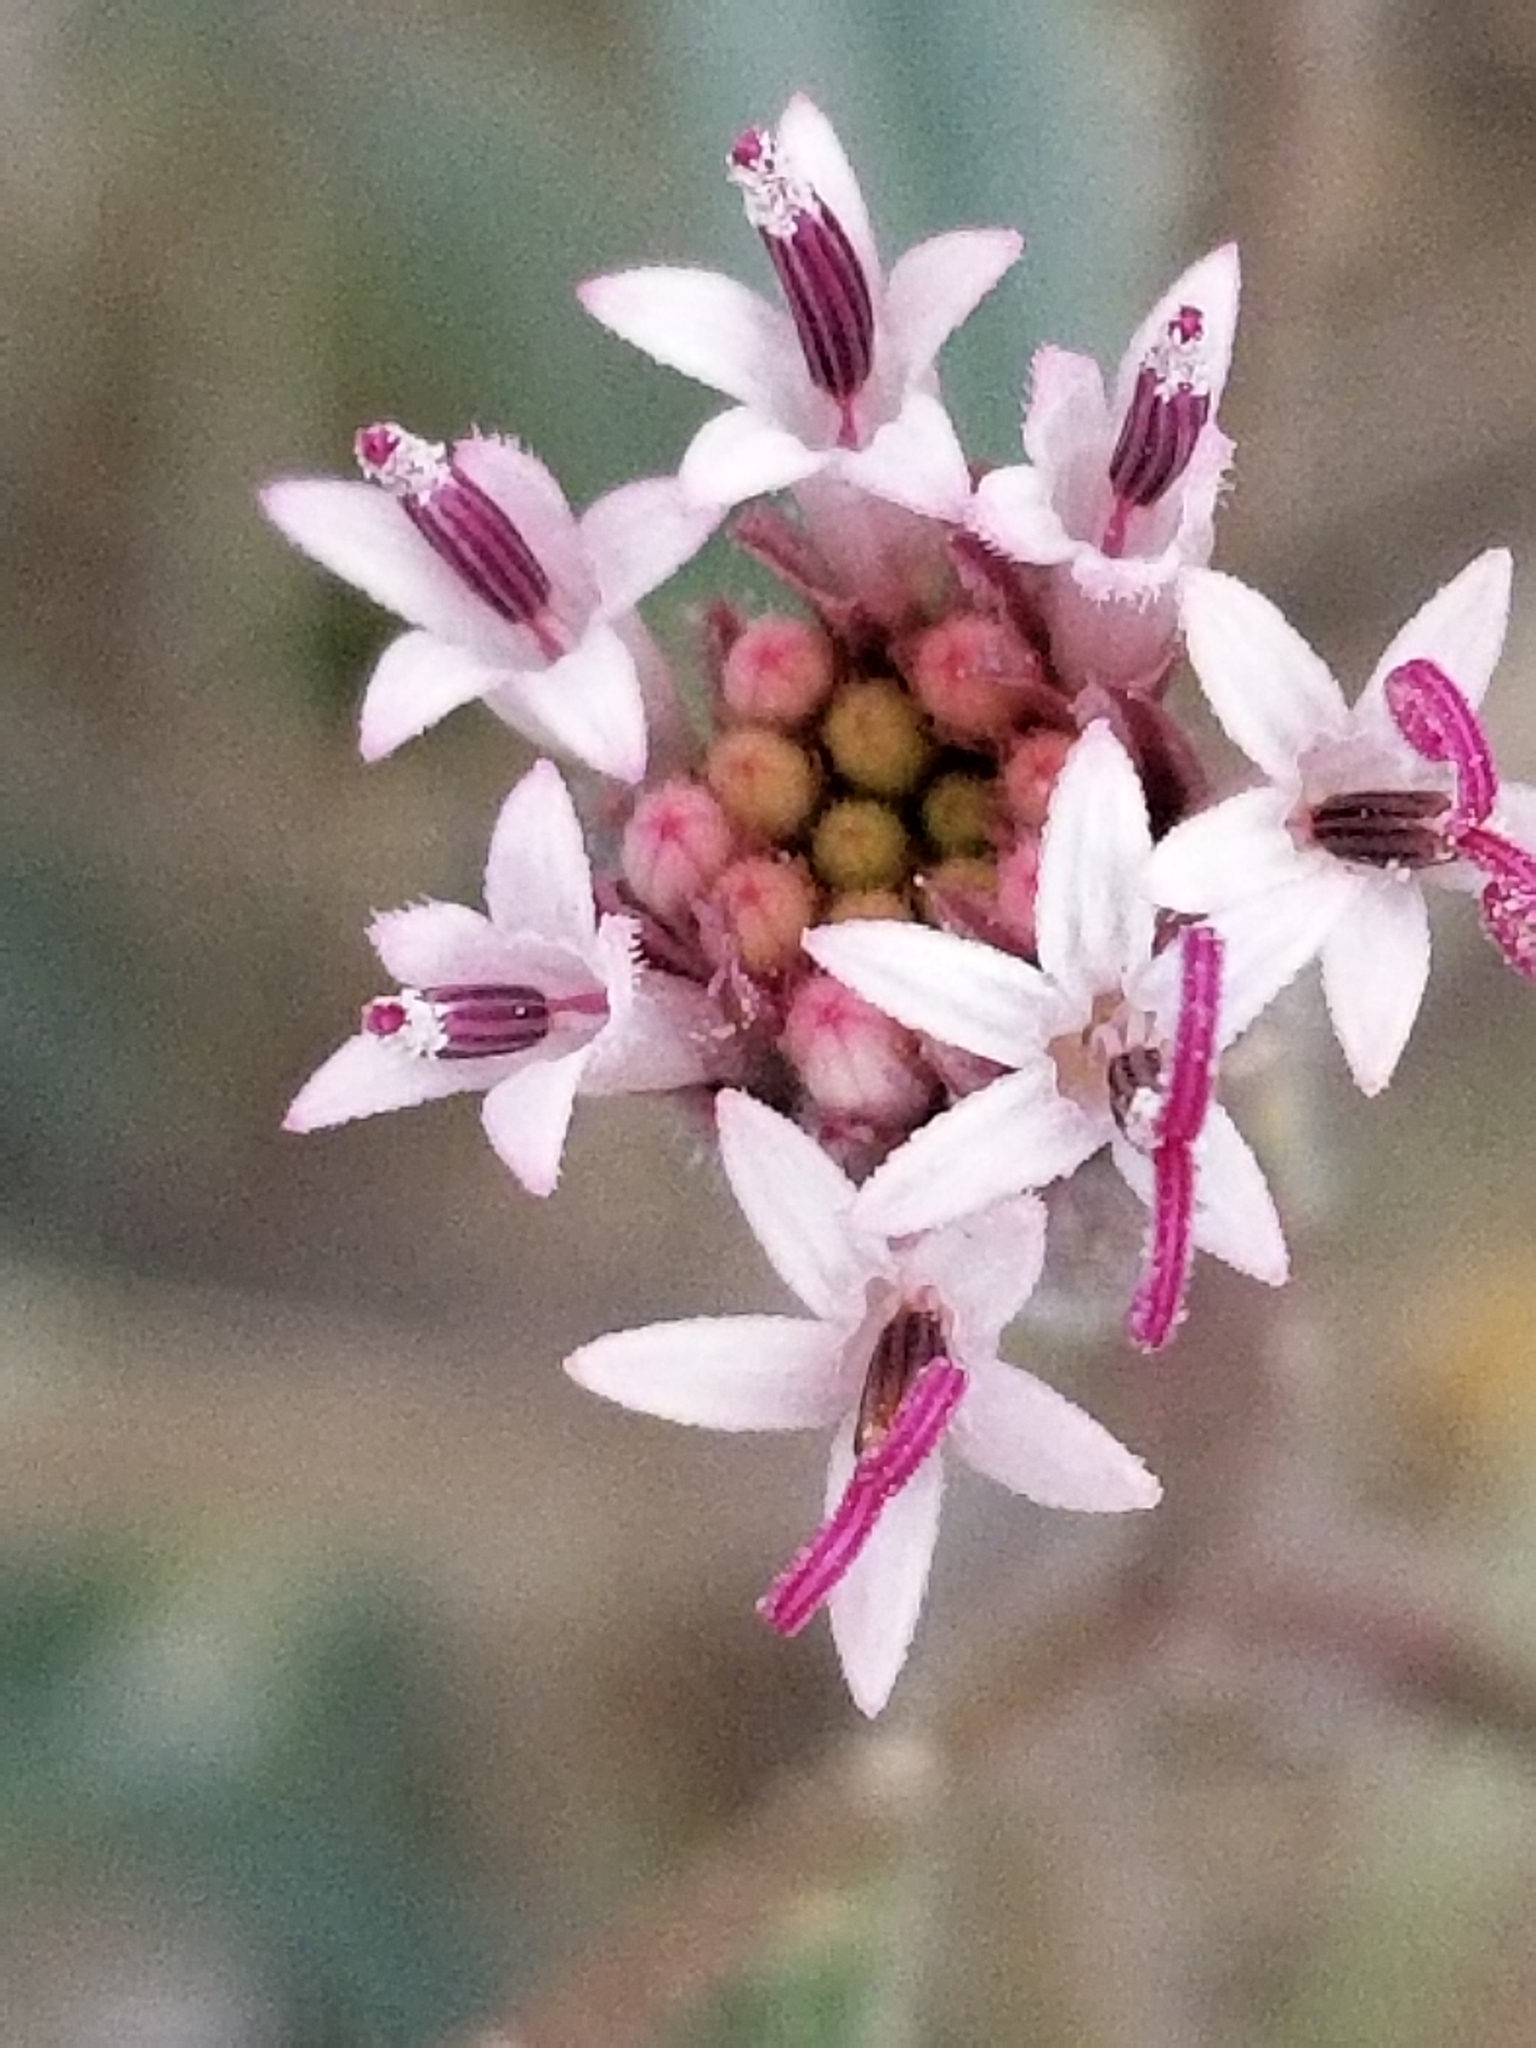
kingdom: Plantae
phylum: Tracheophyta
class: Magnoliopsida
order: Asterales
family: Asteraceae
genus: Palafoxia
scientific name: Palafoxia arida
